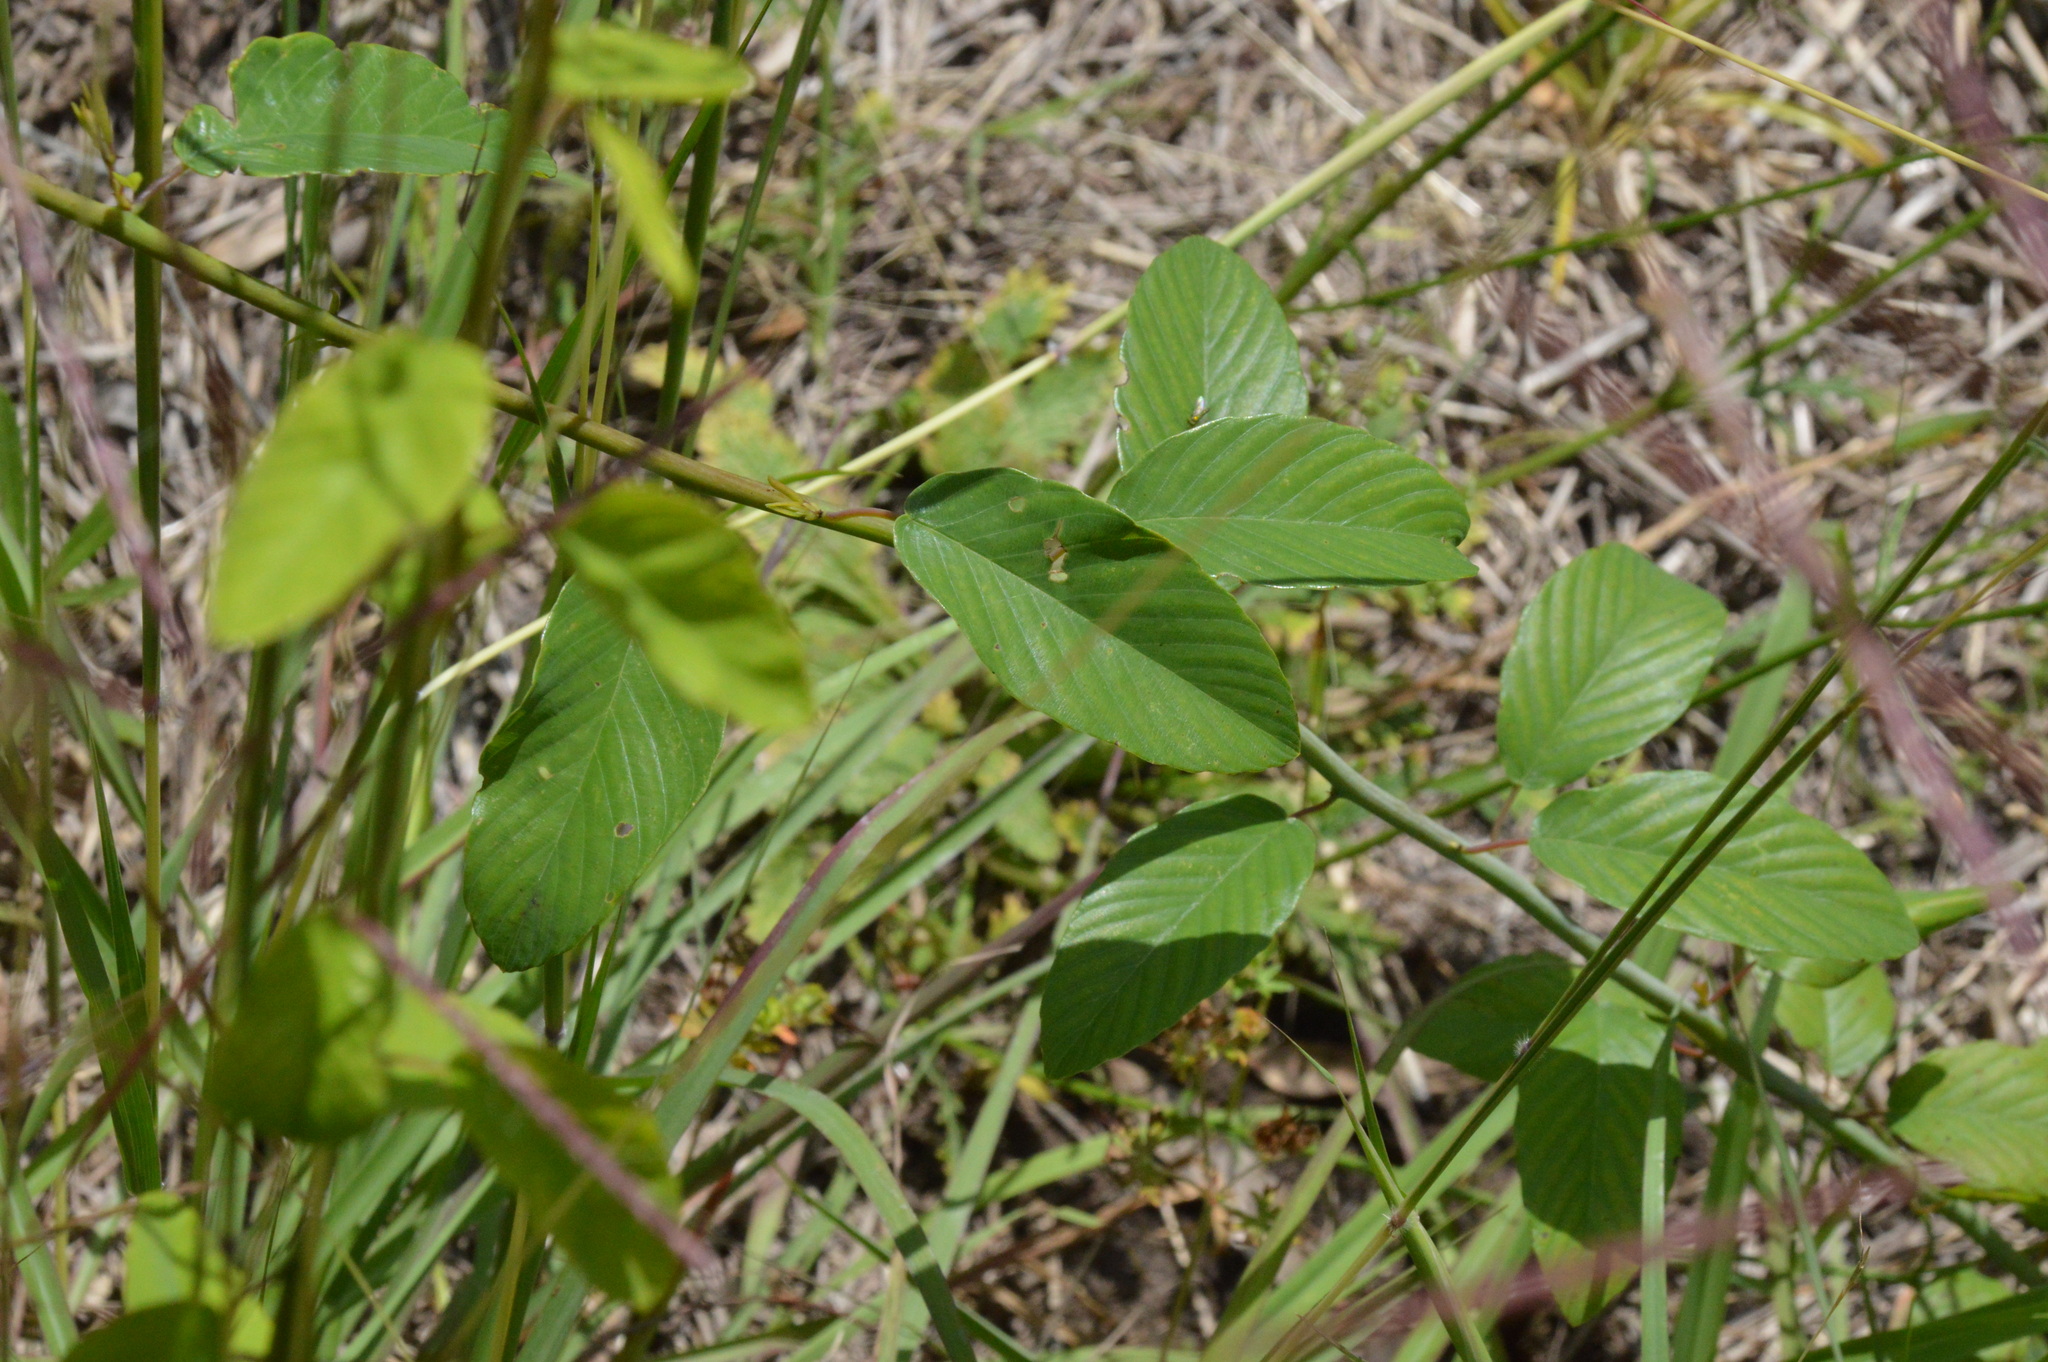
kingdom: Plantae
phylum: Tracheophyta
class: Magnoliopsida
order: Rosales
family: Rhamnaceae
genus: Berchemia
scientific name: Berchemia scandens
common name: Supplejack
